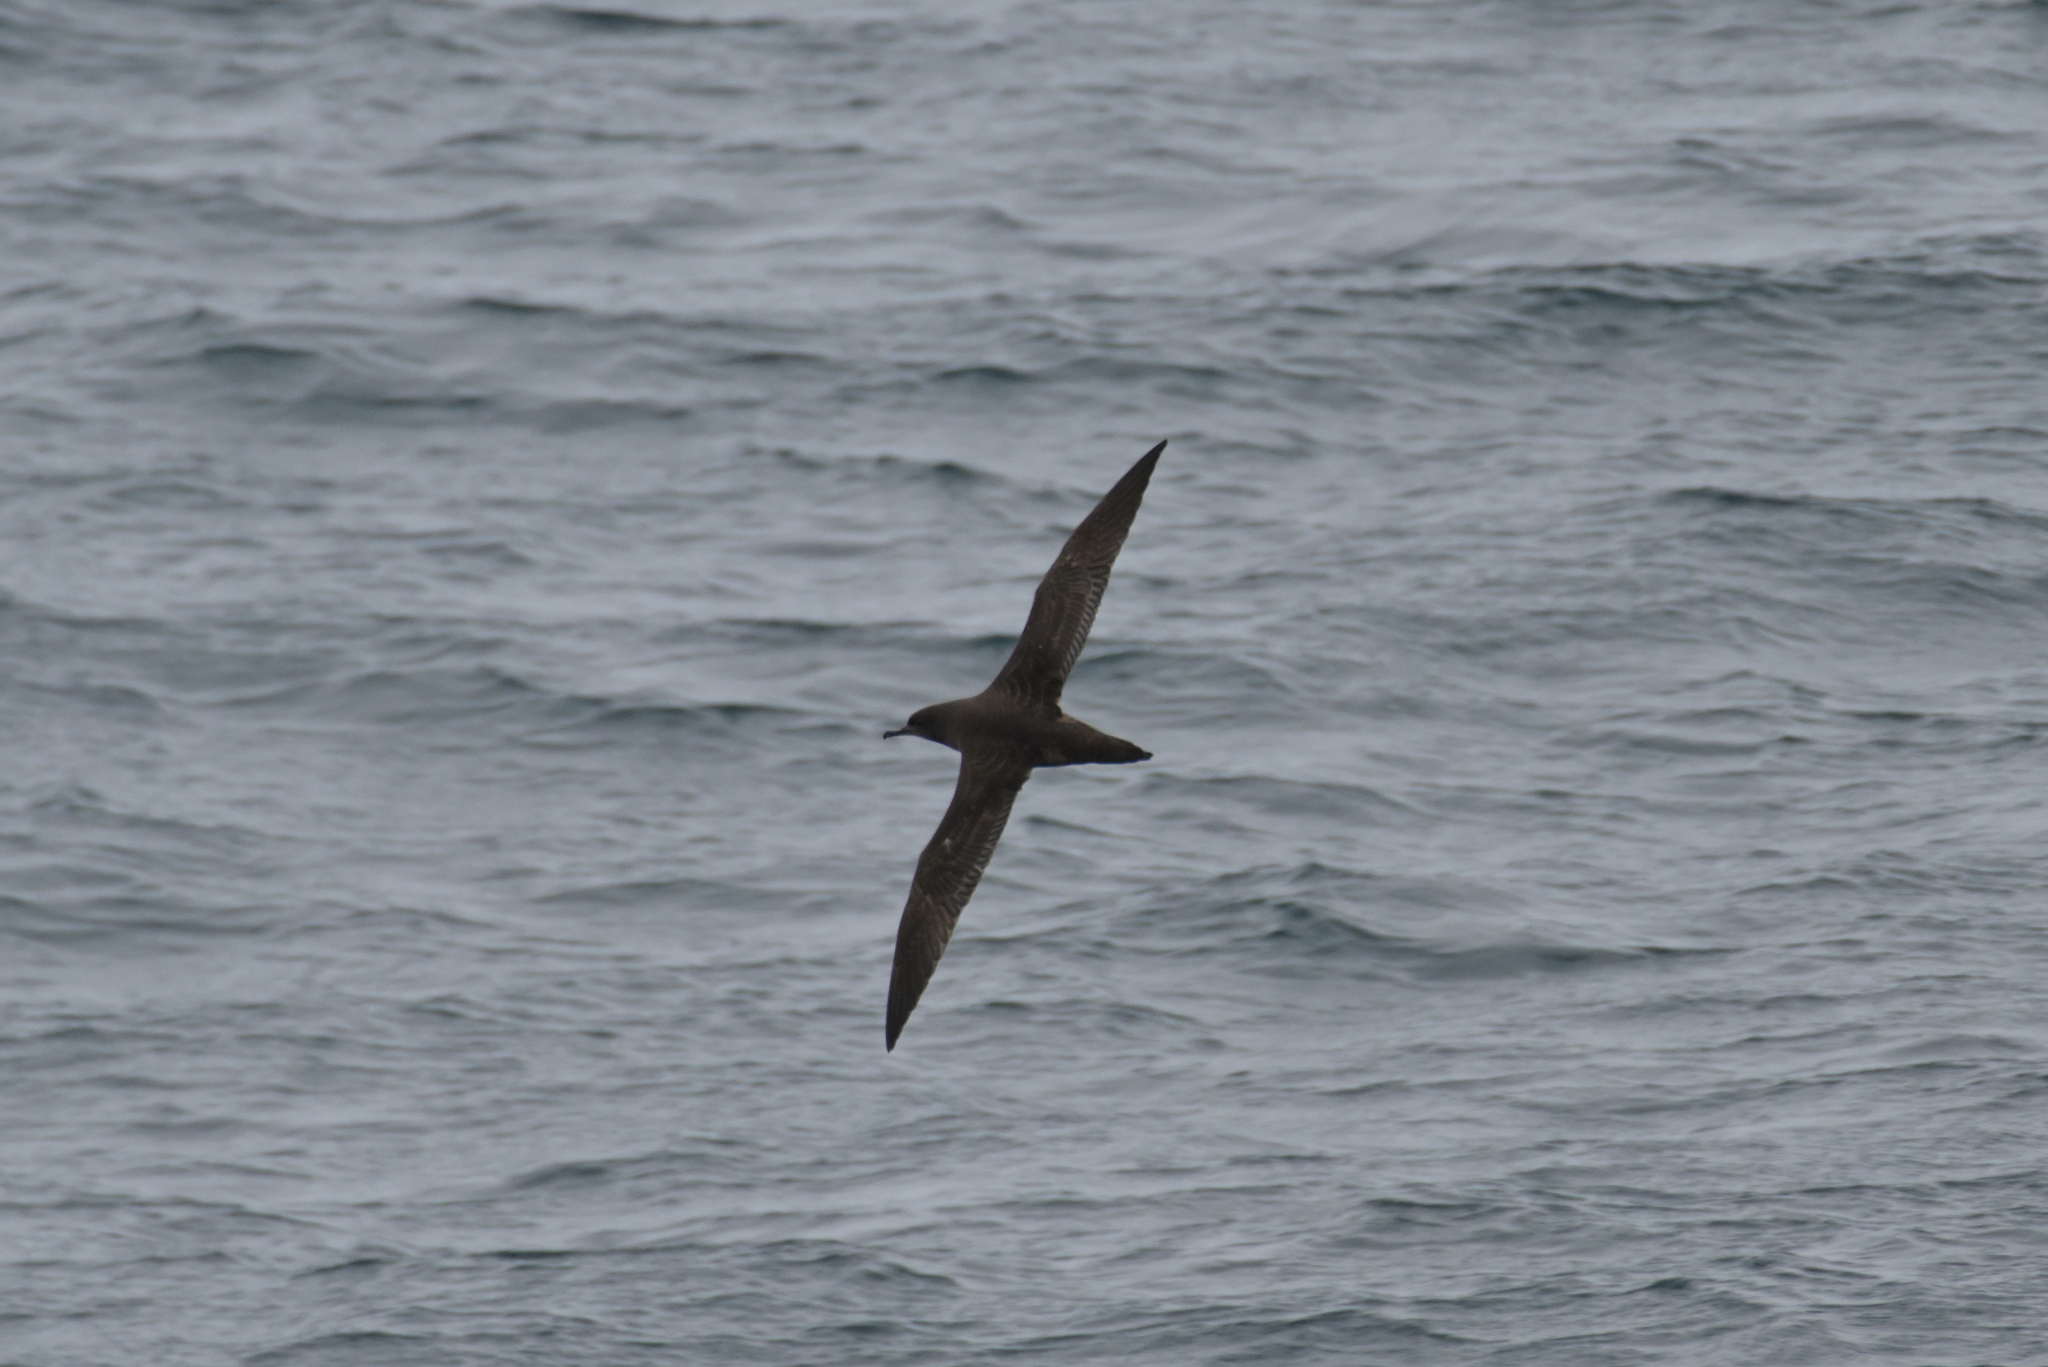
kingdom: Animalia
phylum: Chordata
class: Aves
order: Procellariiformes
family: Procellariidae
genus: Puffinus
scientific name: Puffinus griseus
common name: Sooty shearwater
